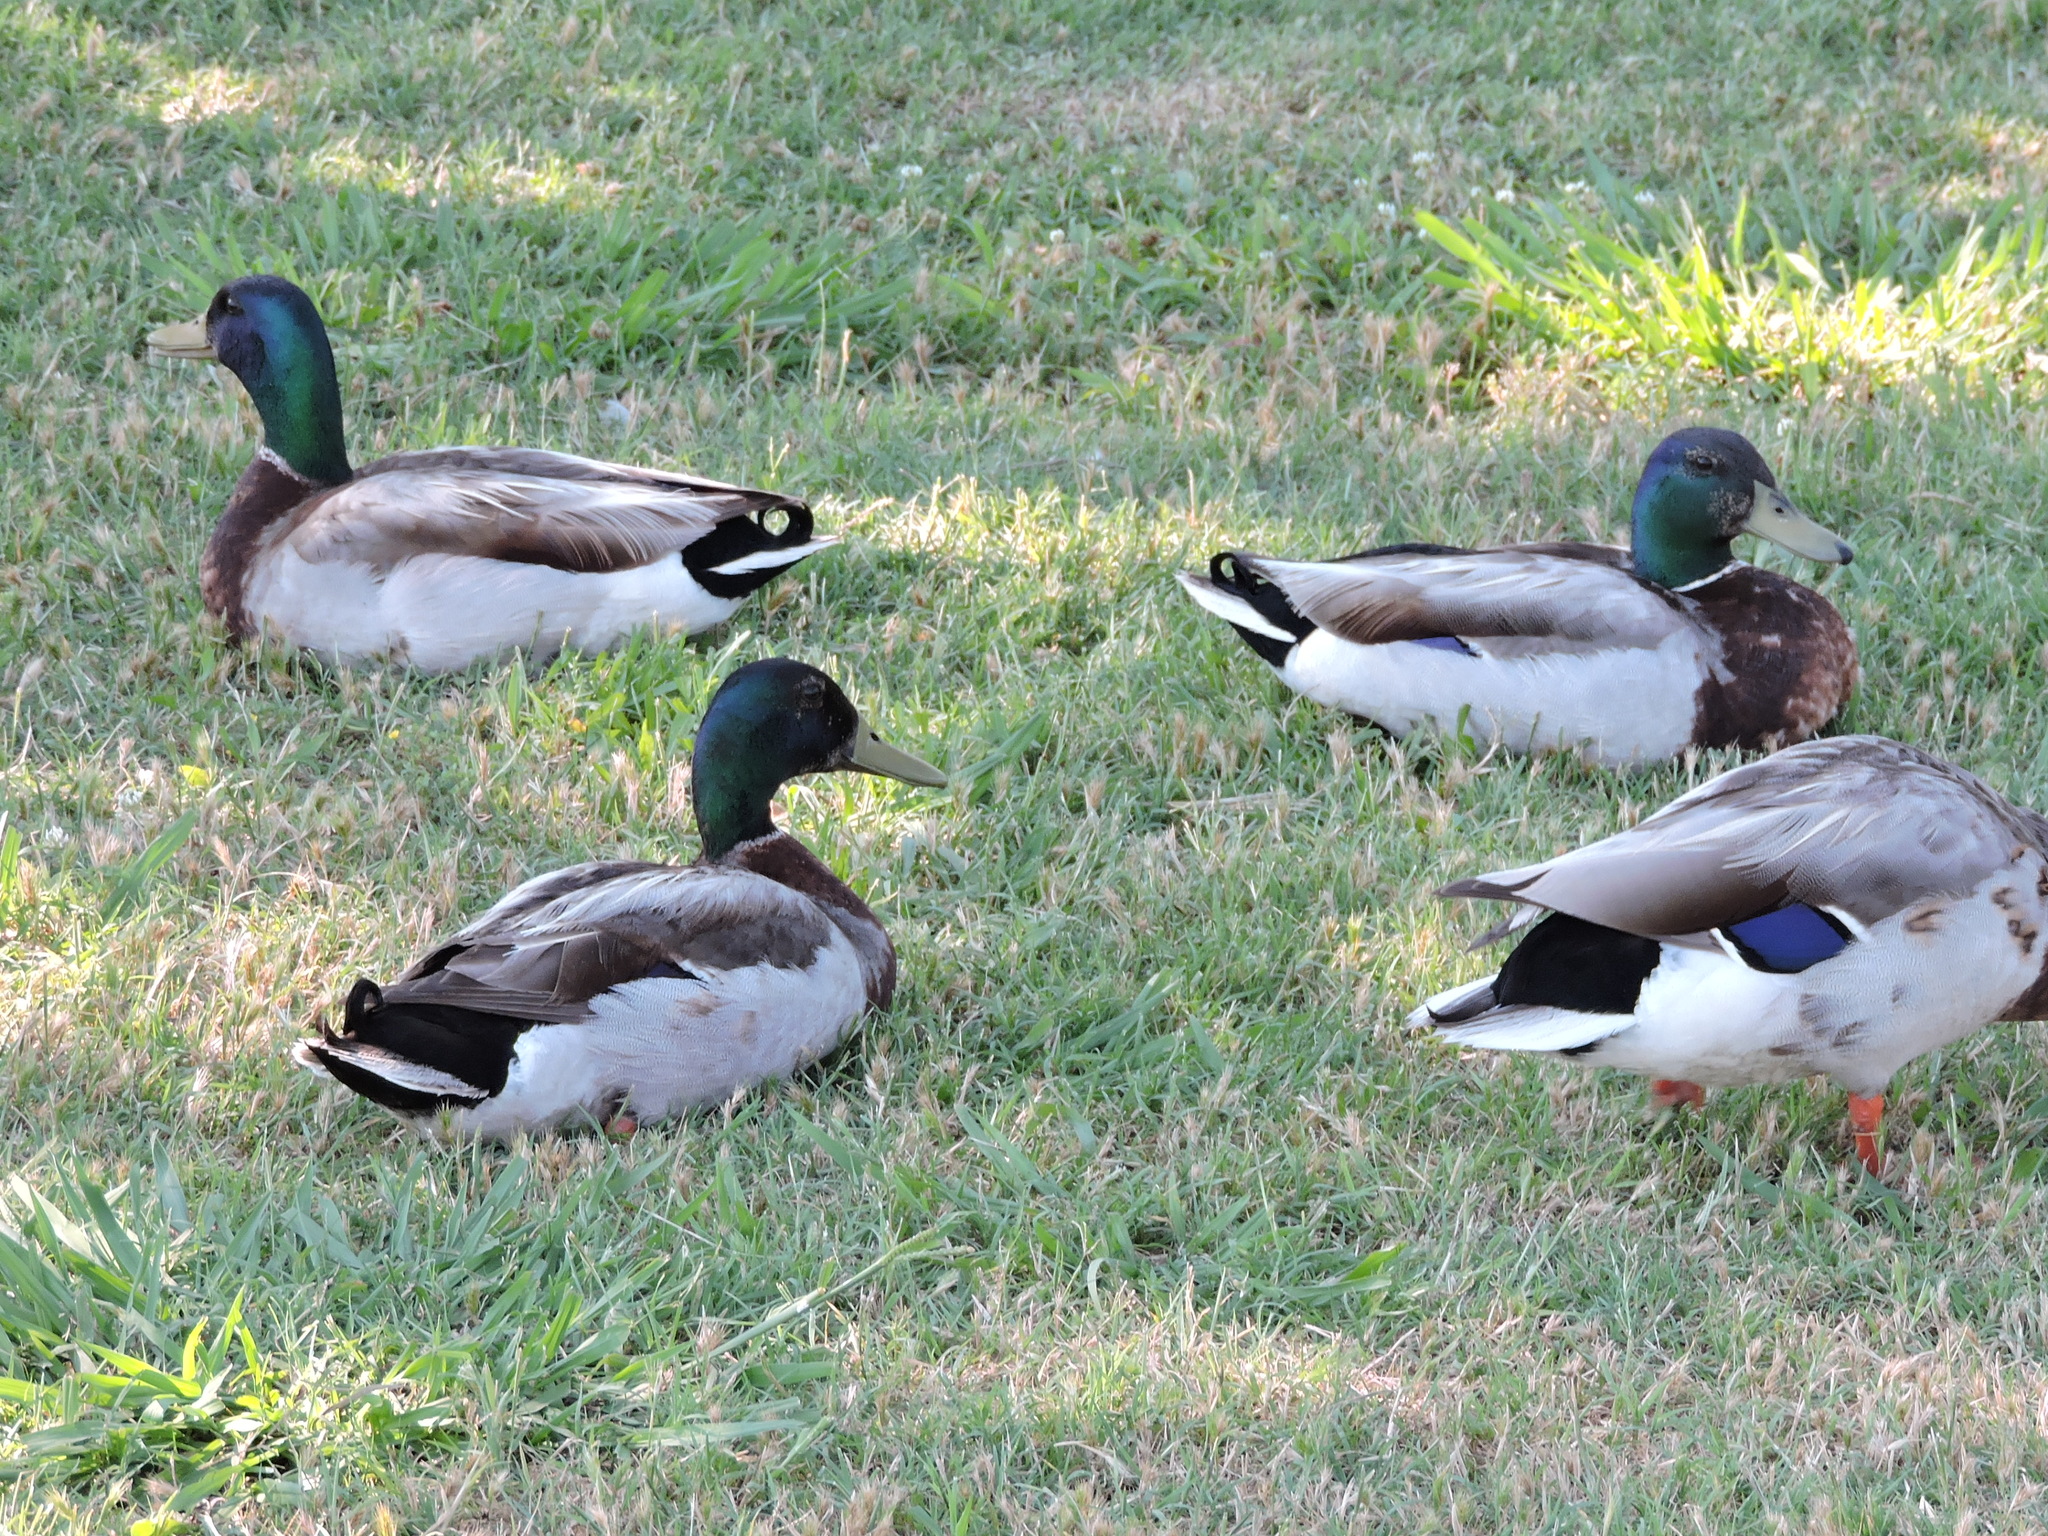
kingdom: Animalia
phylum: Chordata
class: Aves
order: Anseriformes
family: Anatidae
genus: Anas
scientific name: Anas platyrhynchos
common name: Mallard
